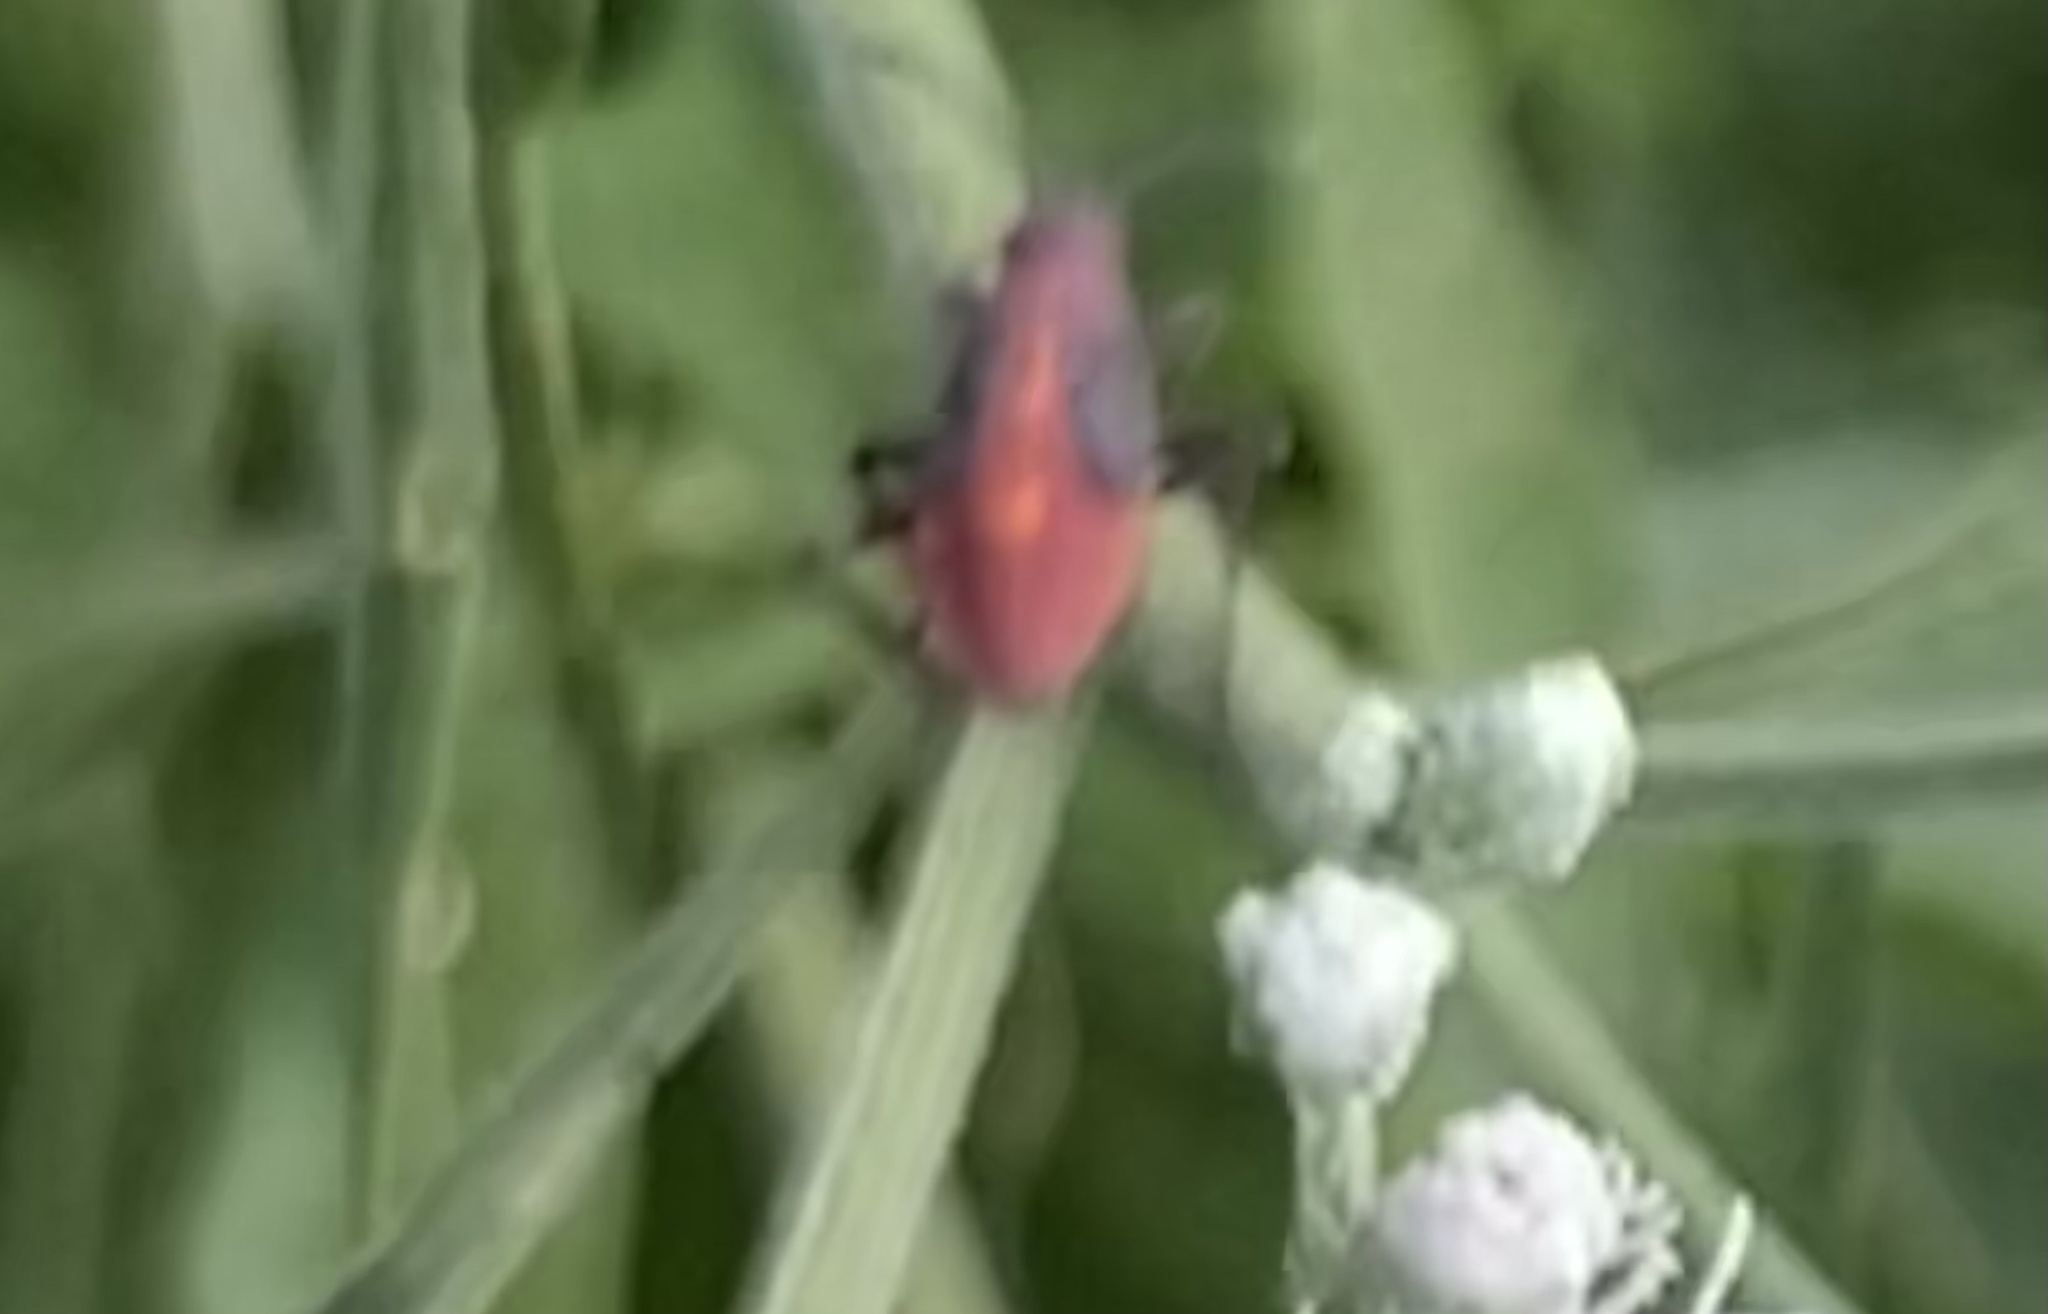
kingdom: Animalia
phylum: Arthropoda
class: Insecta
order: Hemiptera
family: Rhopalidae
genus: Boisea
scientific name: Boisea trivittata
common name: Boxelder bug
